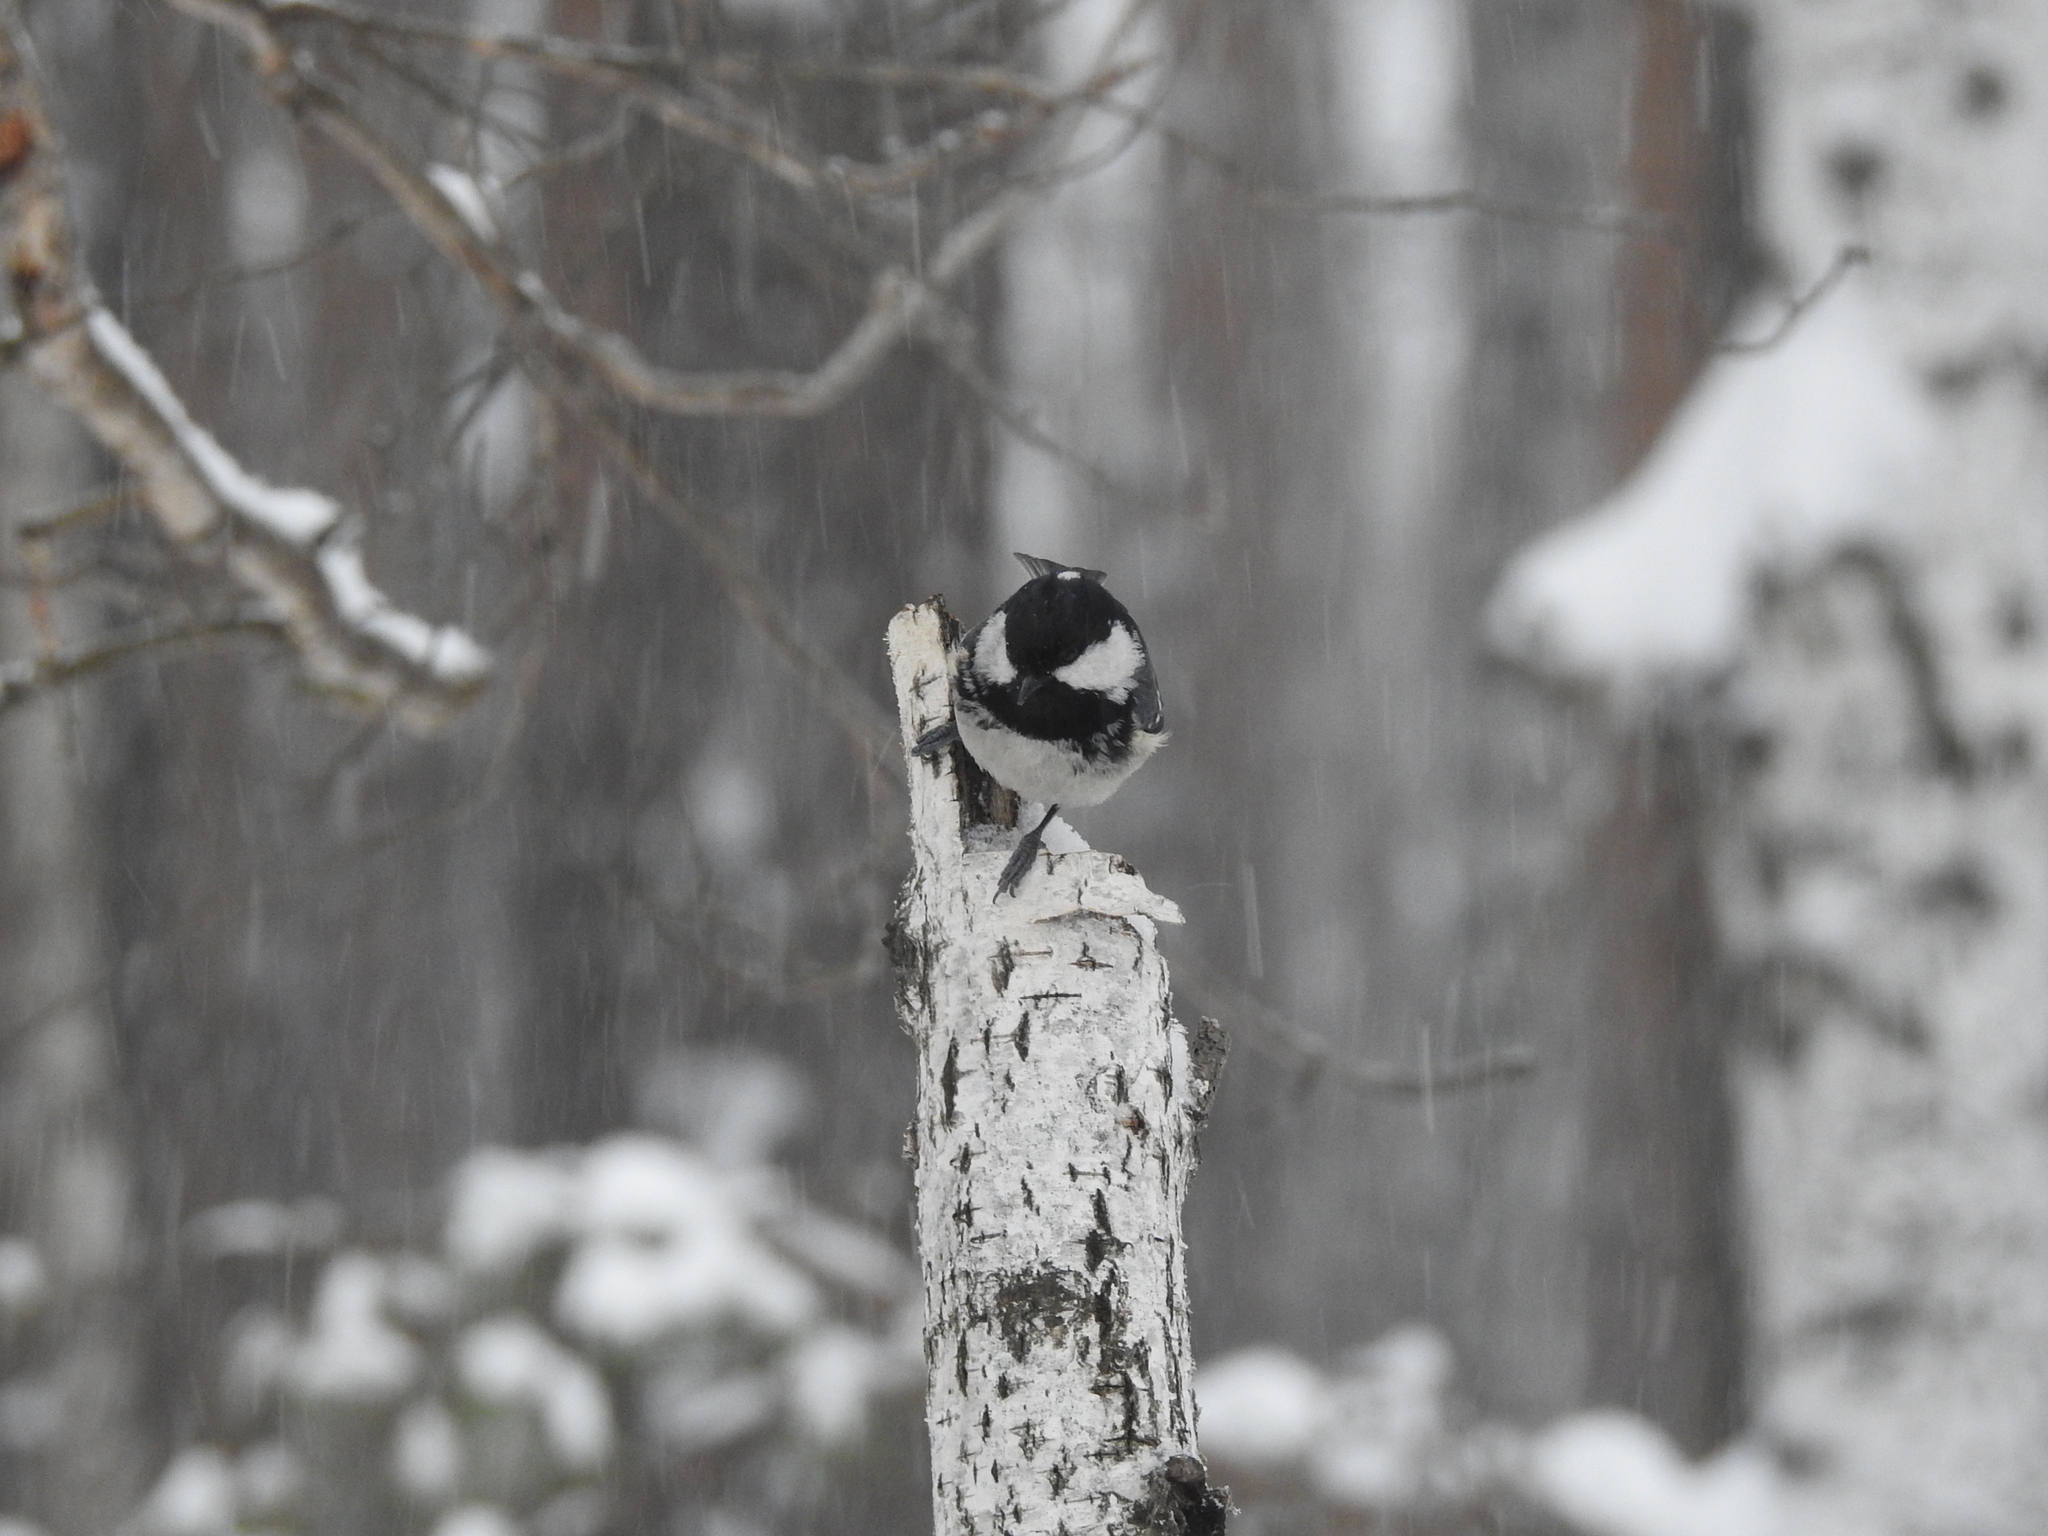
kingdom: Animalia
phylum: Chordata
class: Aves
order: Passeriformes
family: Paridae
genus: Periparus
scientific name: Periparus ater
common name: Coal tit
